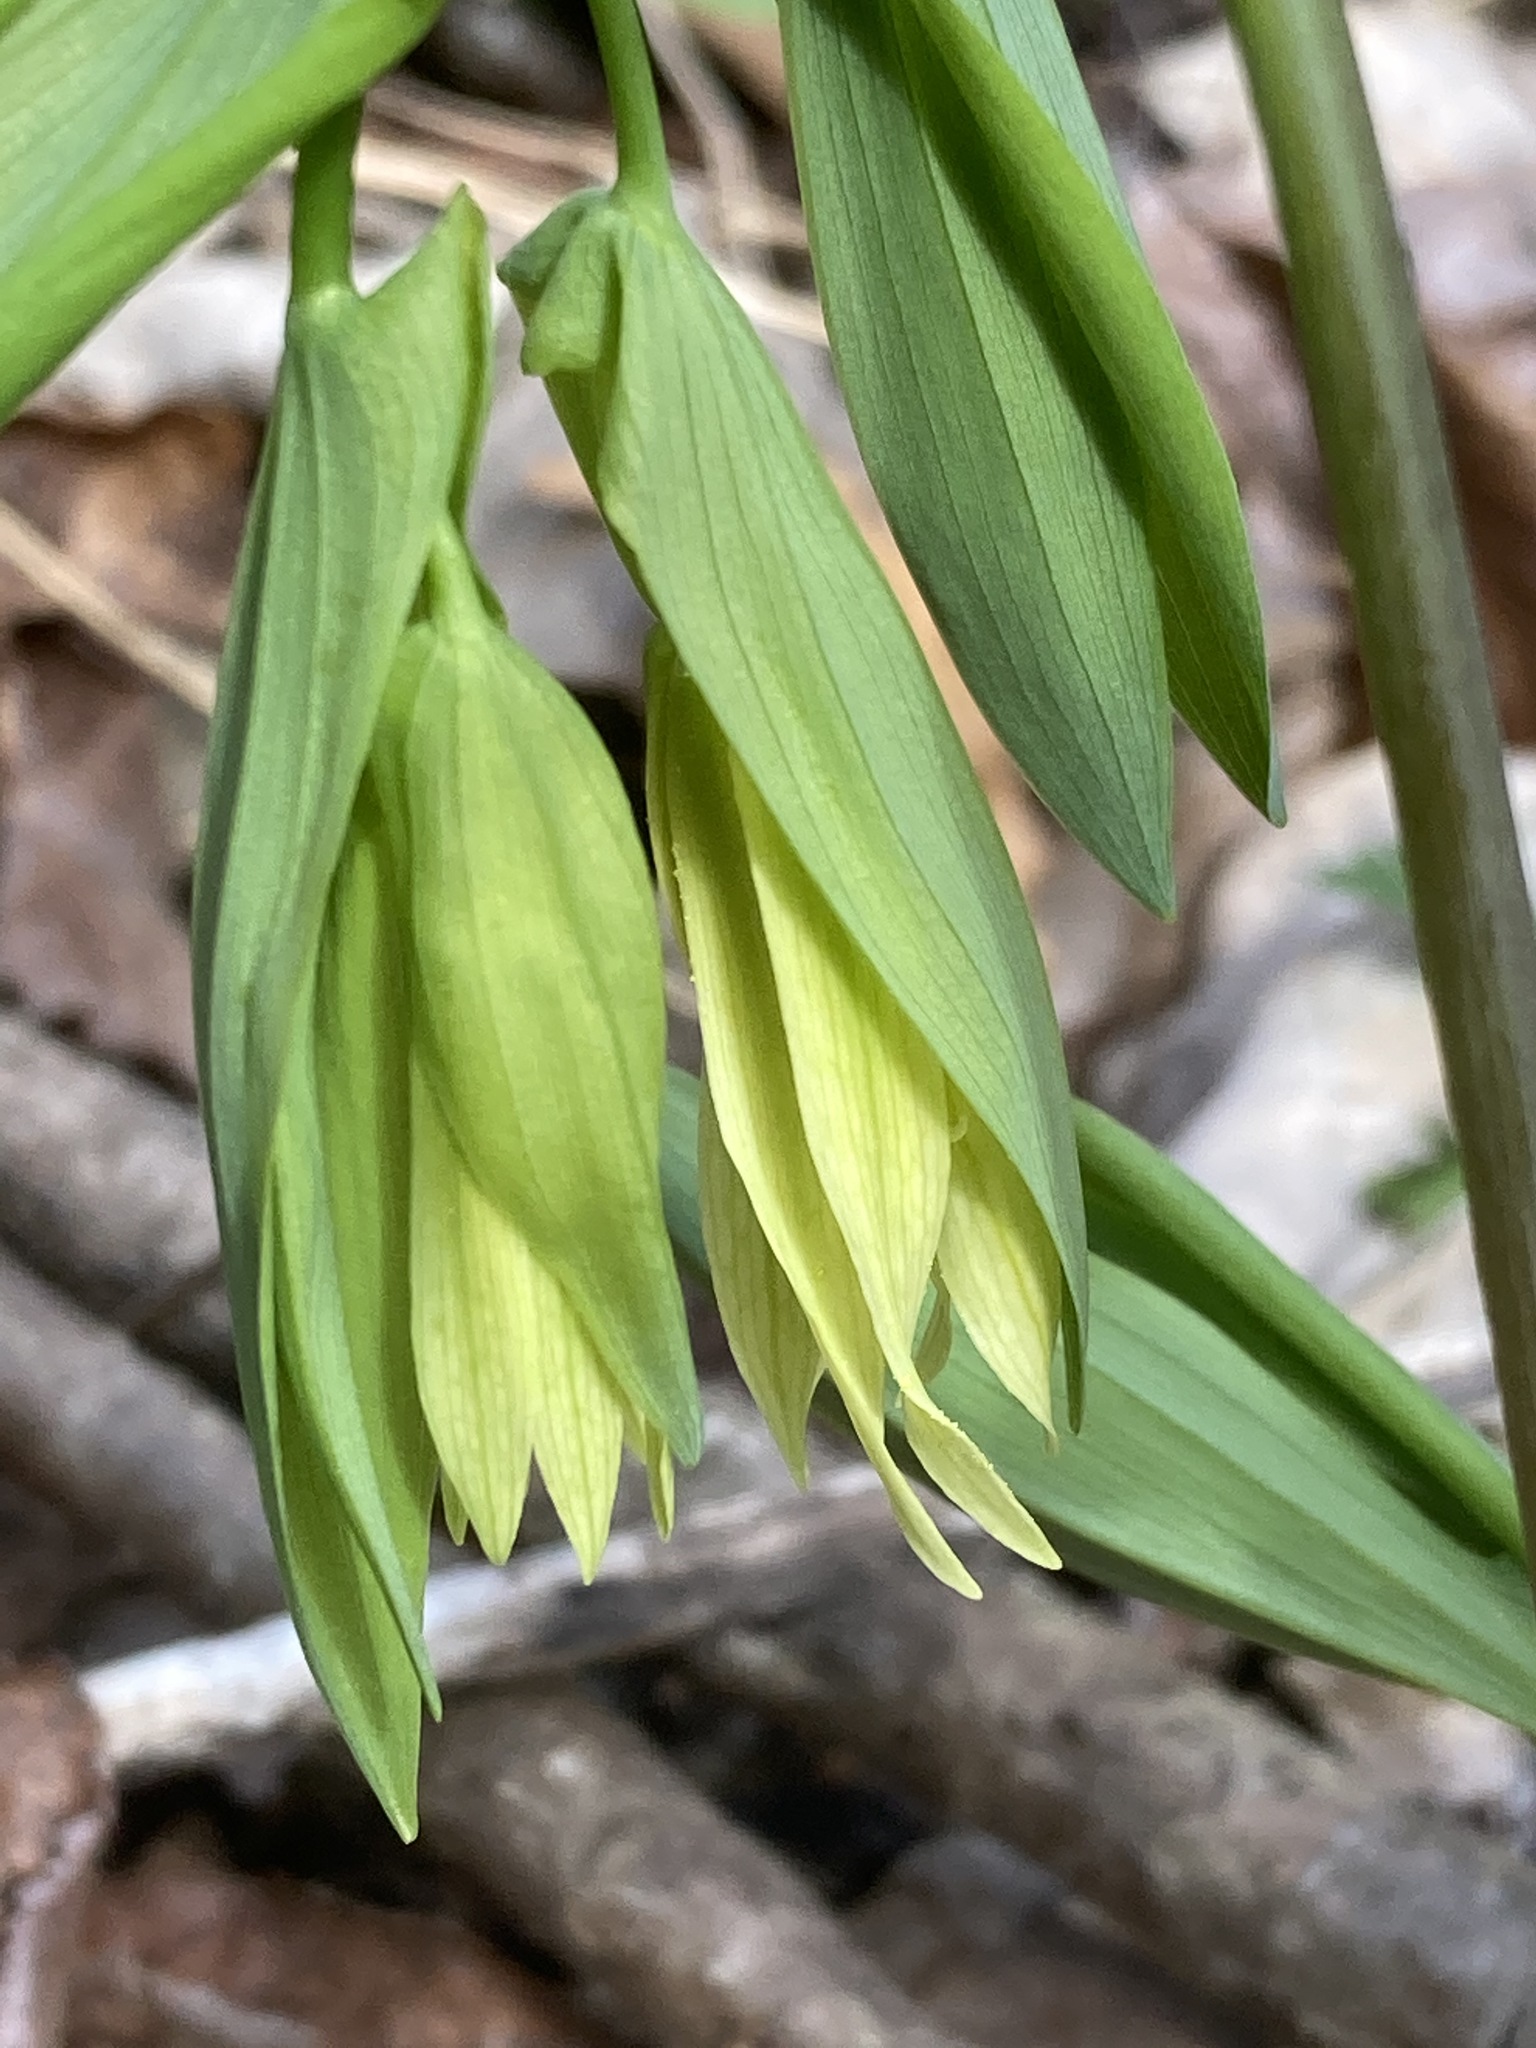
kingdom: Plantae
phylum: Tracheophyta
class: Liliopsida
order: Liliales
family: Colchicaceae
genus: Uvularia
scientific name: Uvularia grandiflora
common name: Bellwort
